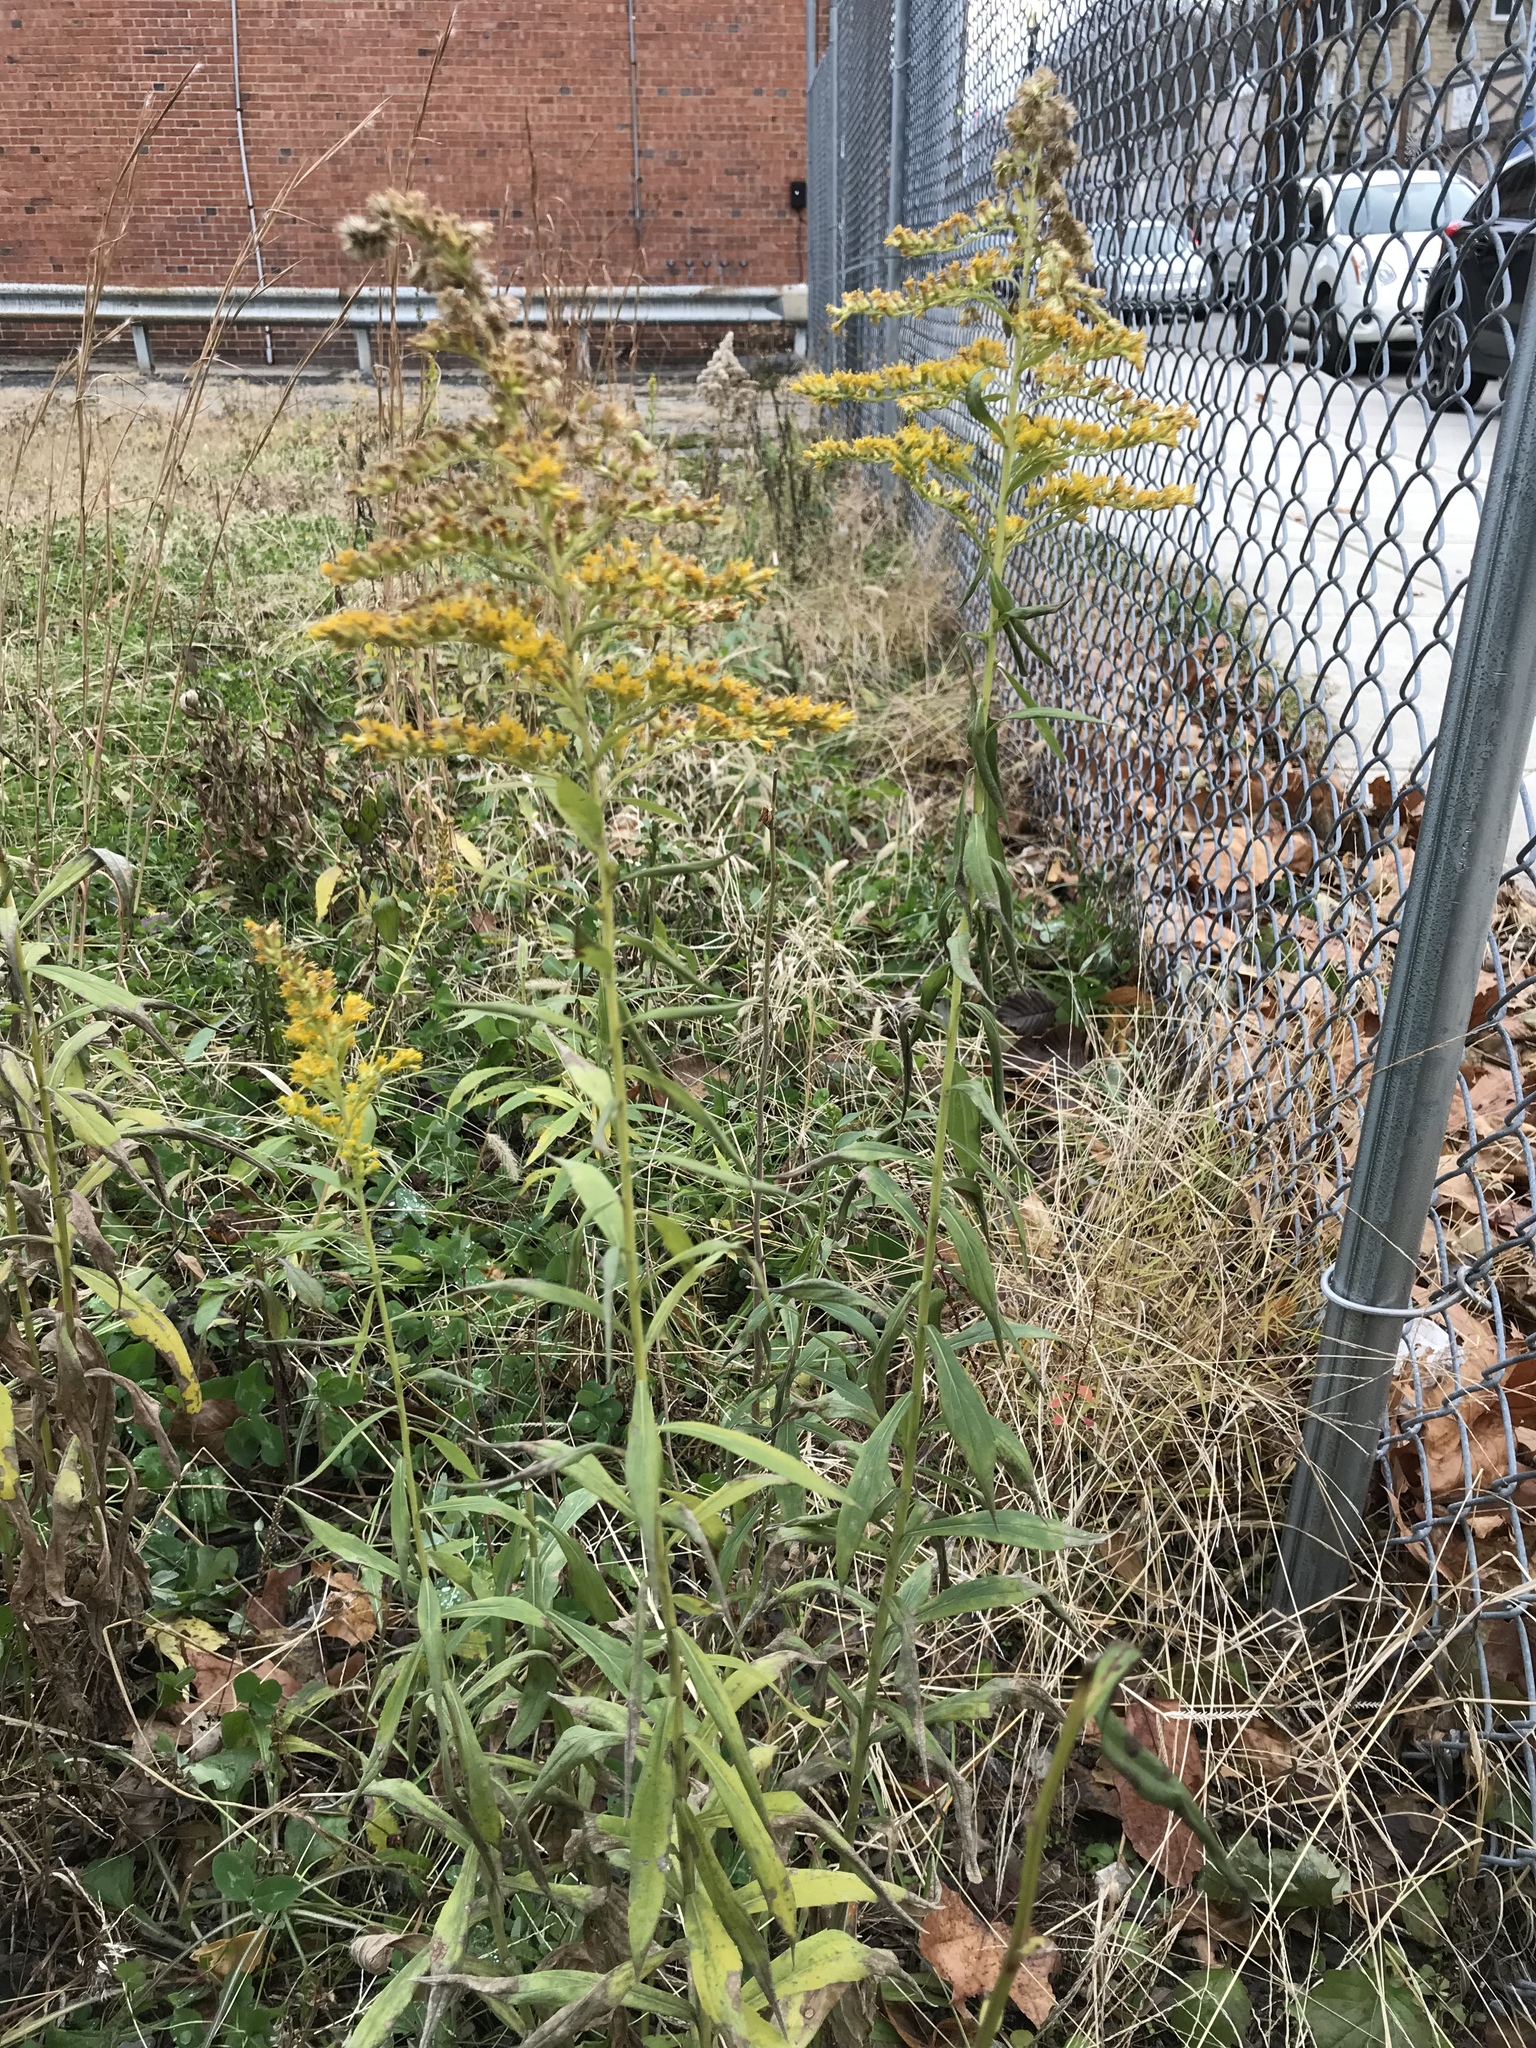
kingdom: Plantae
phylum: Tracheophyta
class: Magnoliopsida
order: Asterales
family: Asteraceae
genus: Solidago
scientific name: Solidago altissima
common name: Late goldenrod
